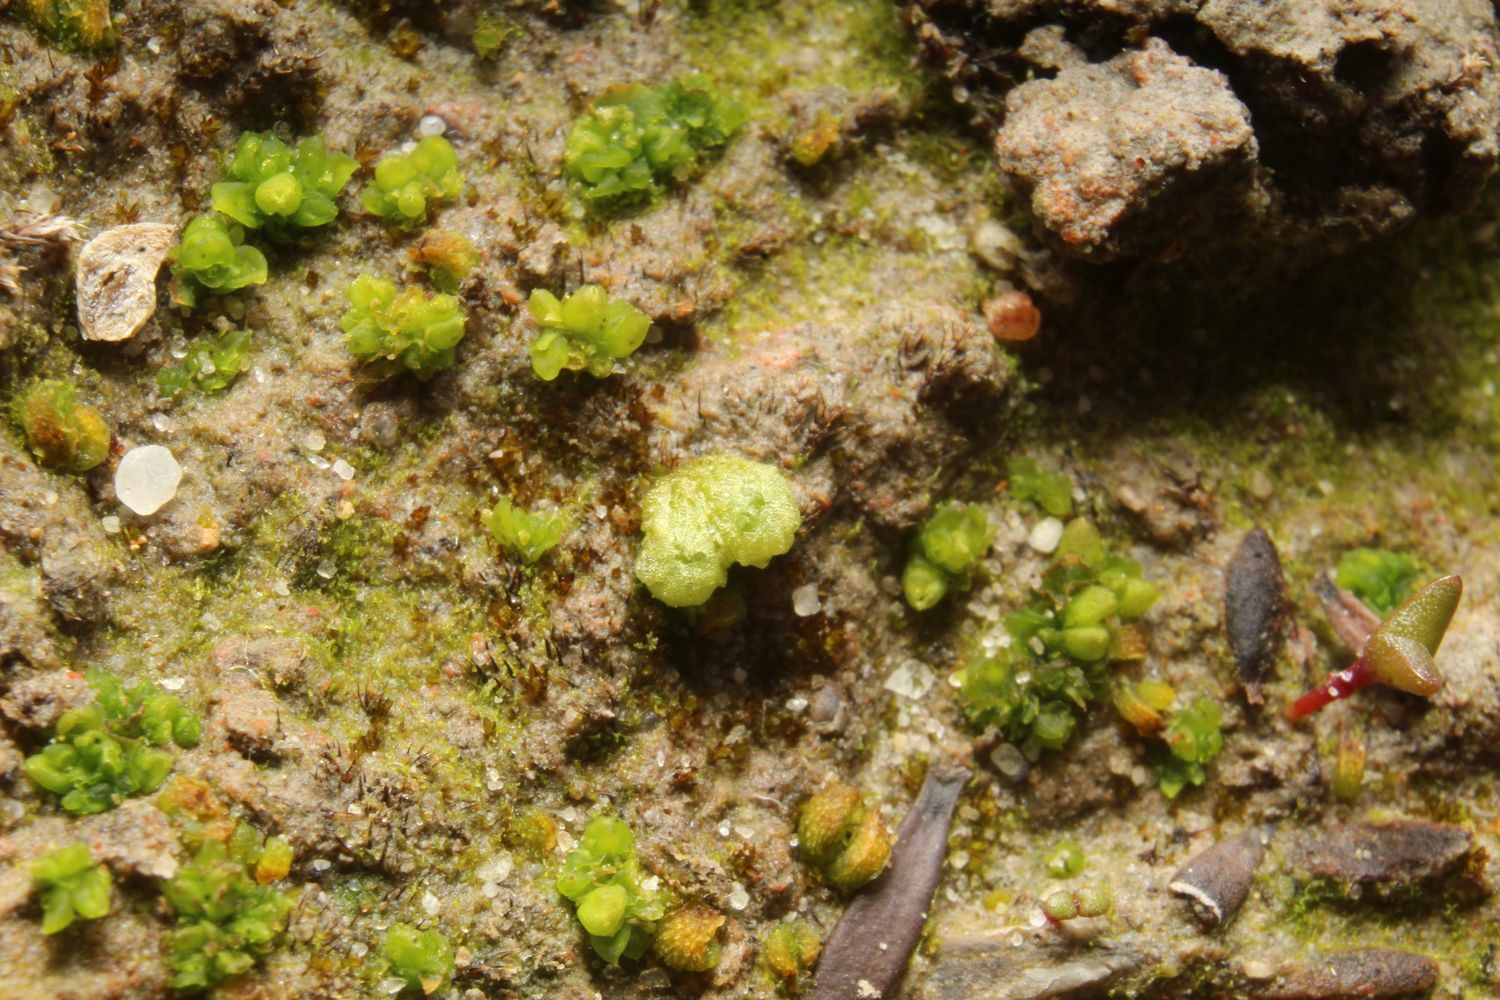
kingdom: Plantae
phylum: Marchantiophyta
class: Marchantiopsida
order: Sphaerocarpales
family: Monocarpaceae
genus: Monocarpus
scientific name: Monocarpus sphaerocarpus
